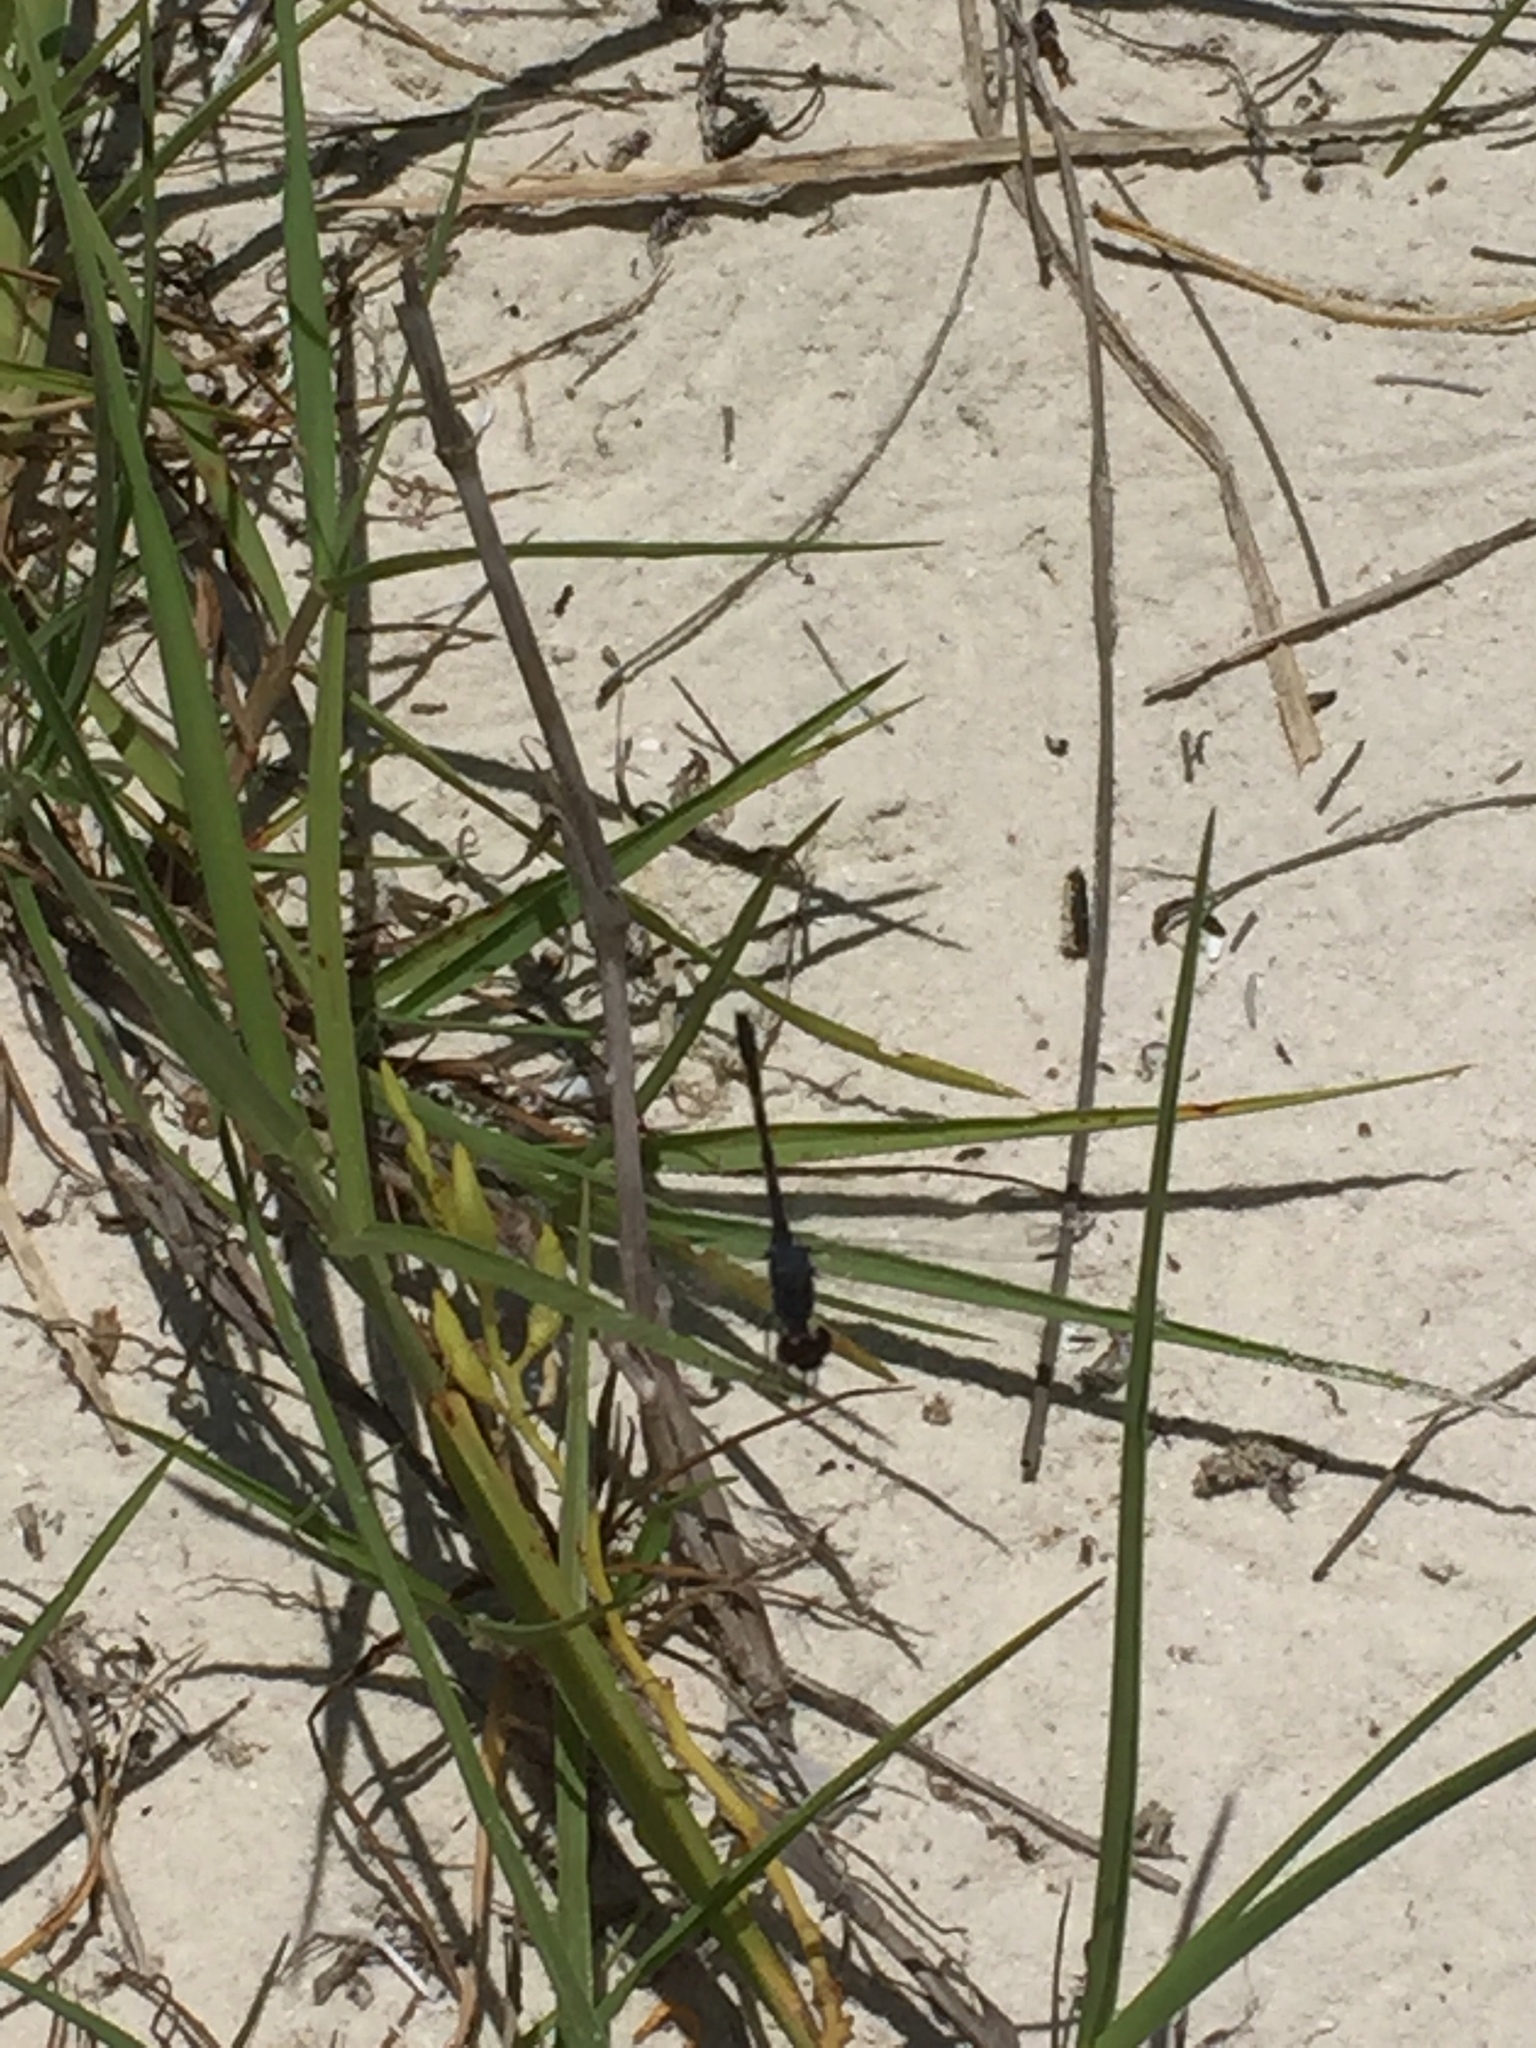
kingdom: Animalia
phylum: Arthropoda
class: Insecta
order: Odonata
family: Libellulidae
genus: Erythrodiplax
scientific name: Erythrodiplax berenice
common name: Seaside dragonlet
